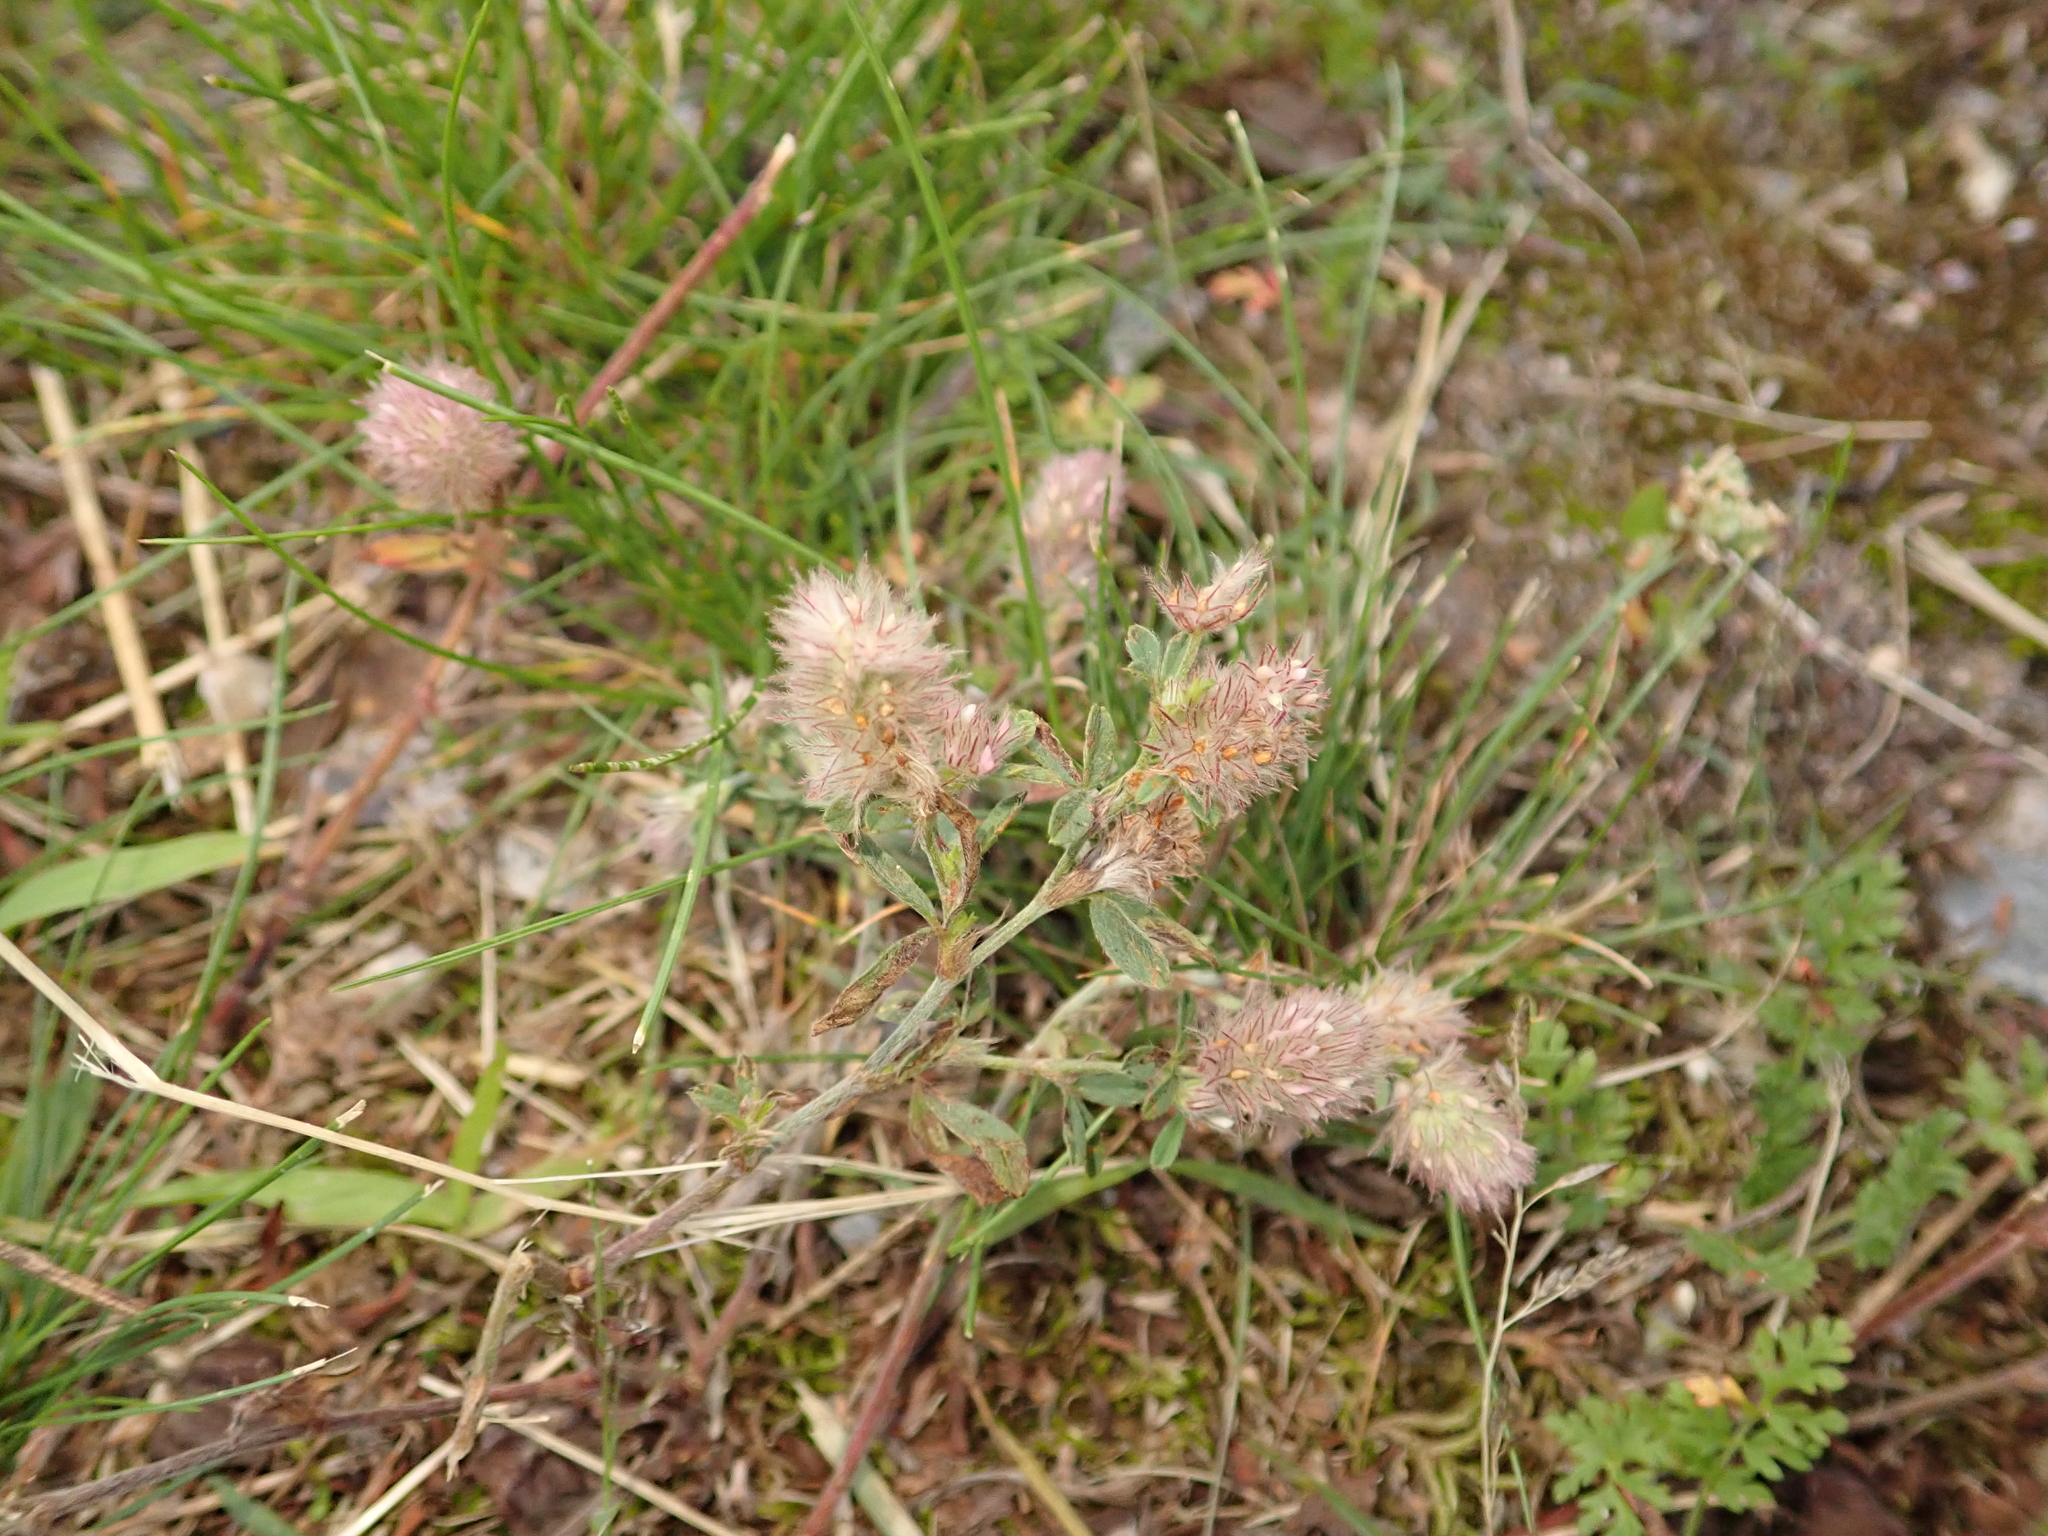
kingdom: Plantae
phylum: Tracheophyta
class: Magnoliopsida
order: Fabales
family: Fabaceae
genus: Trifolium
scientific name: Trifolium arvense
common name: Hare's-foot clover
